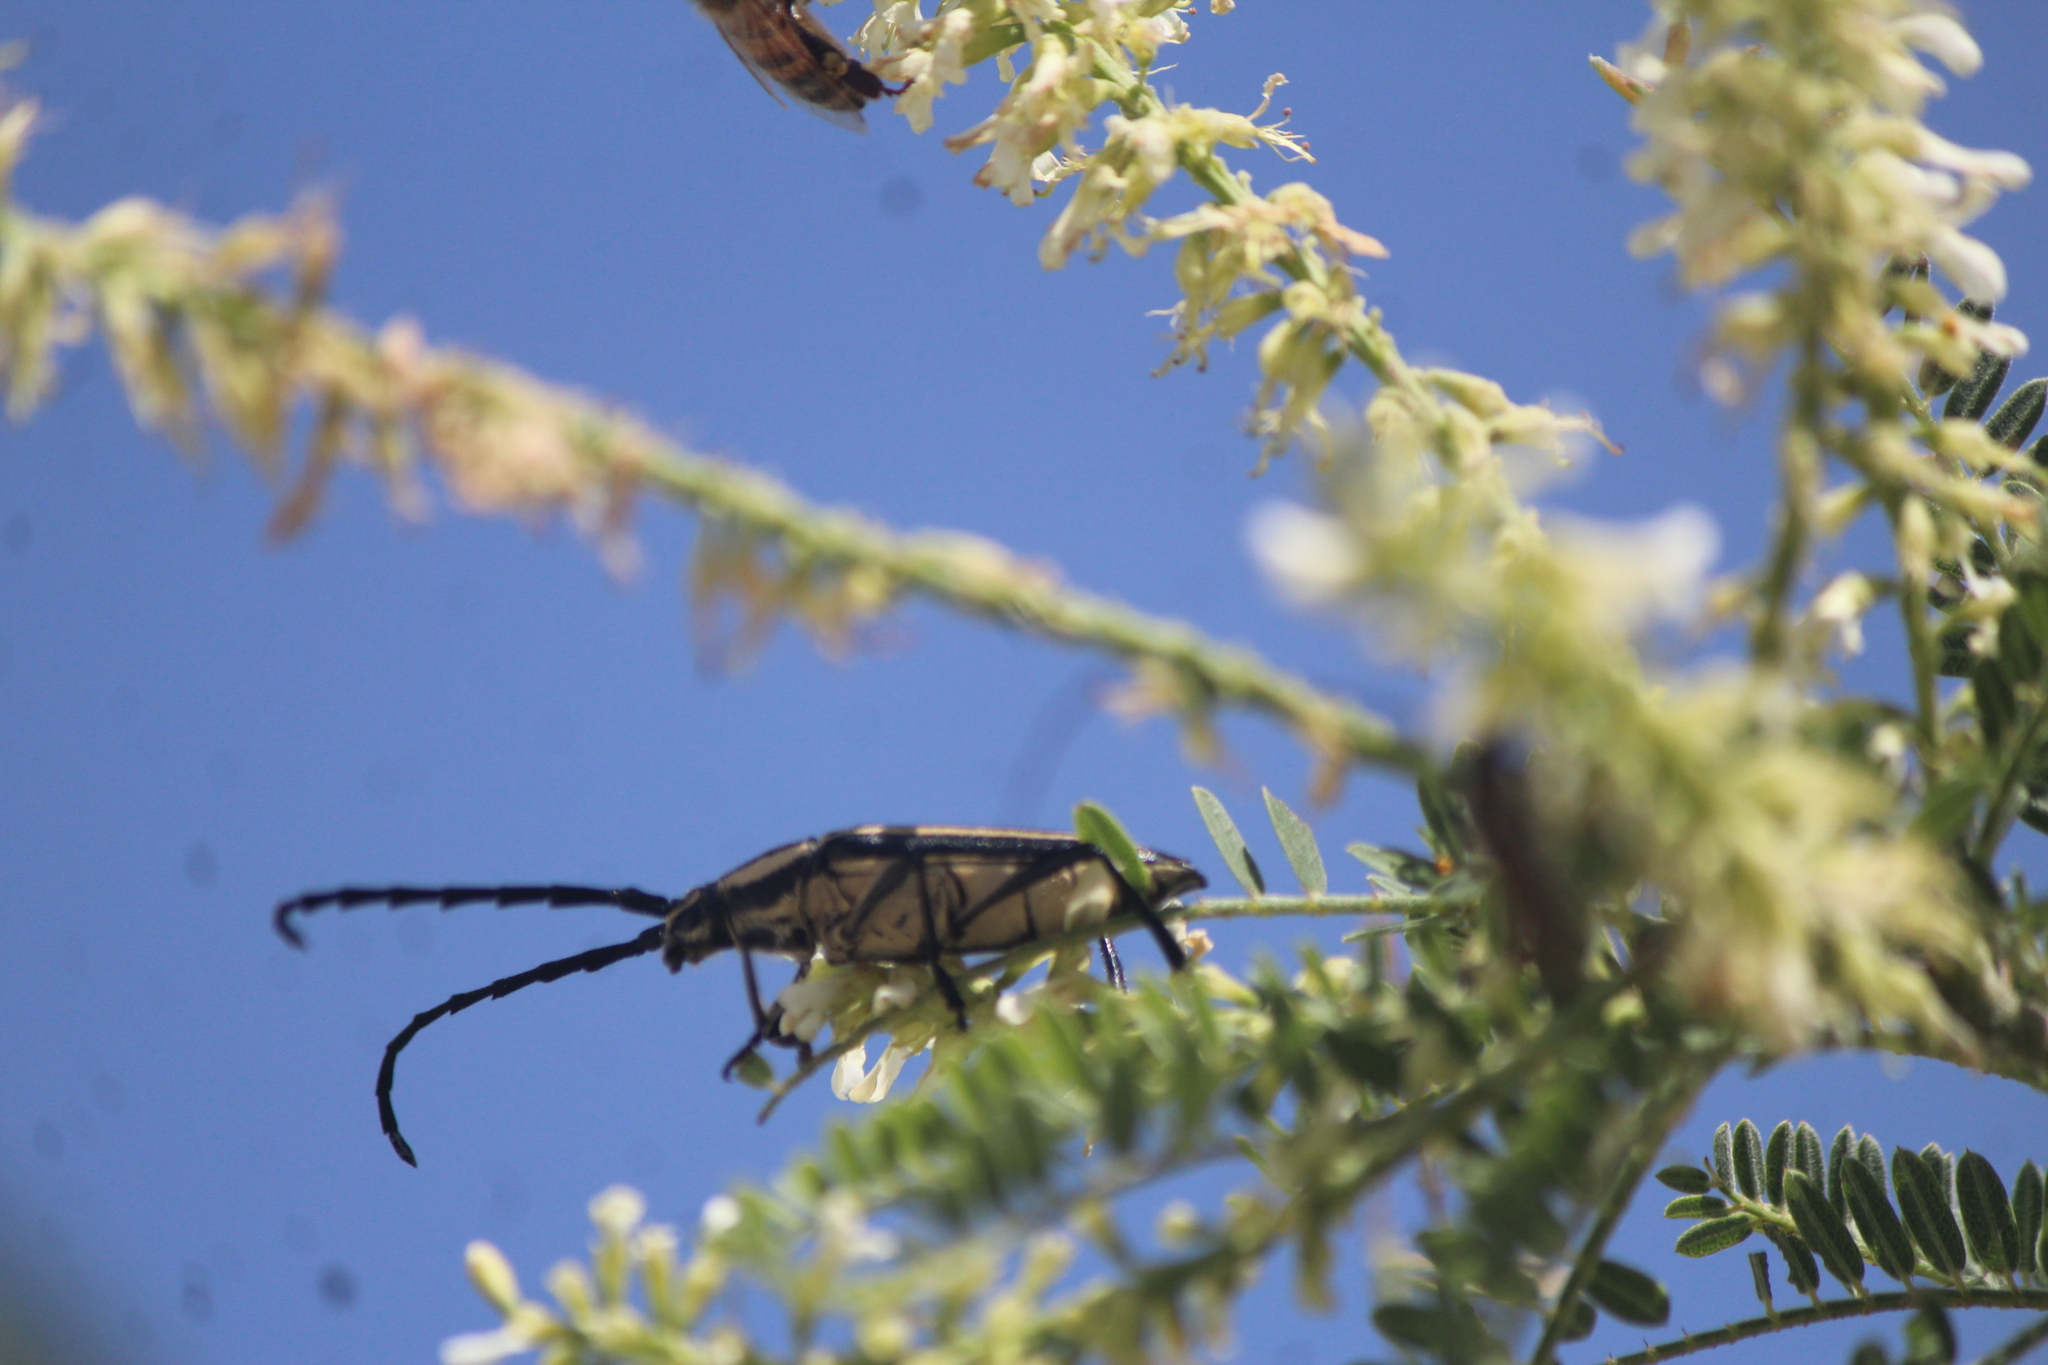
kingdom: Animalia
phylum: Arthropoda
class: Insecta
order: Coleoptera
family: Cerambycidae
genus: Sphaenothecus
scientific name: Sphaenothecus trilineatus
